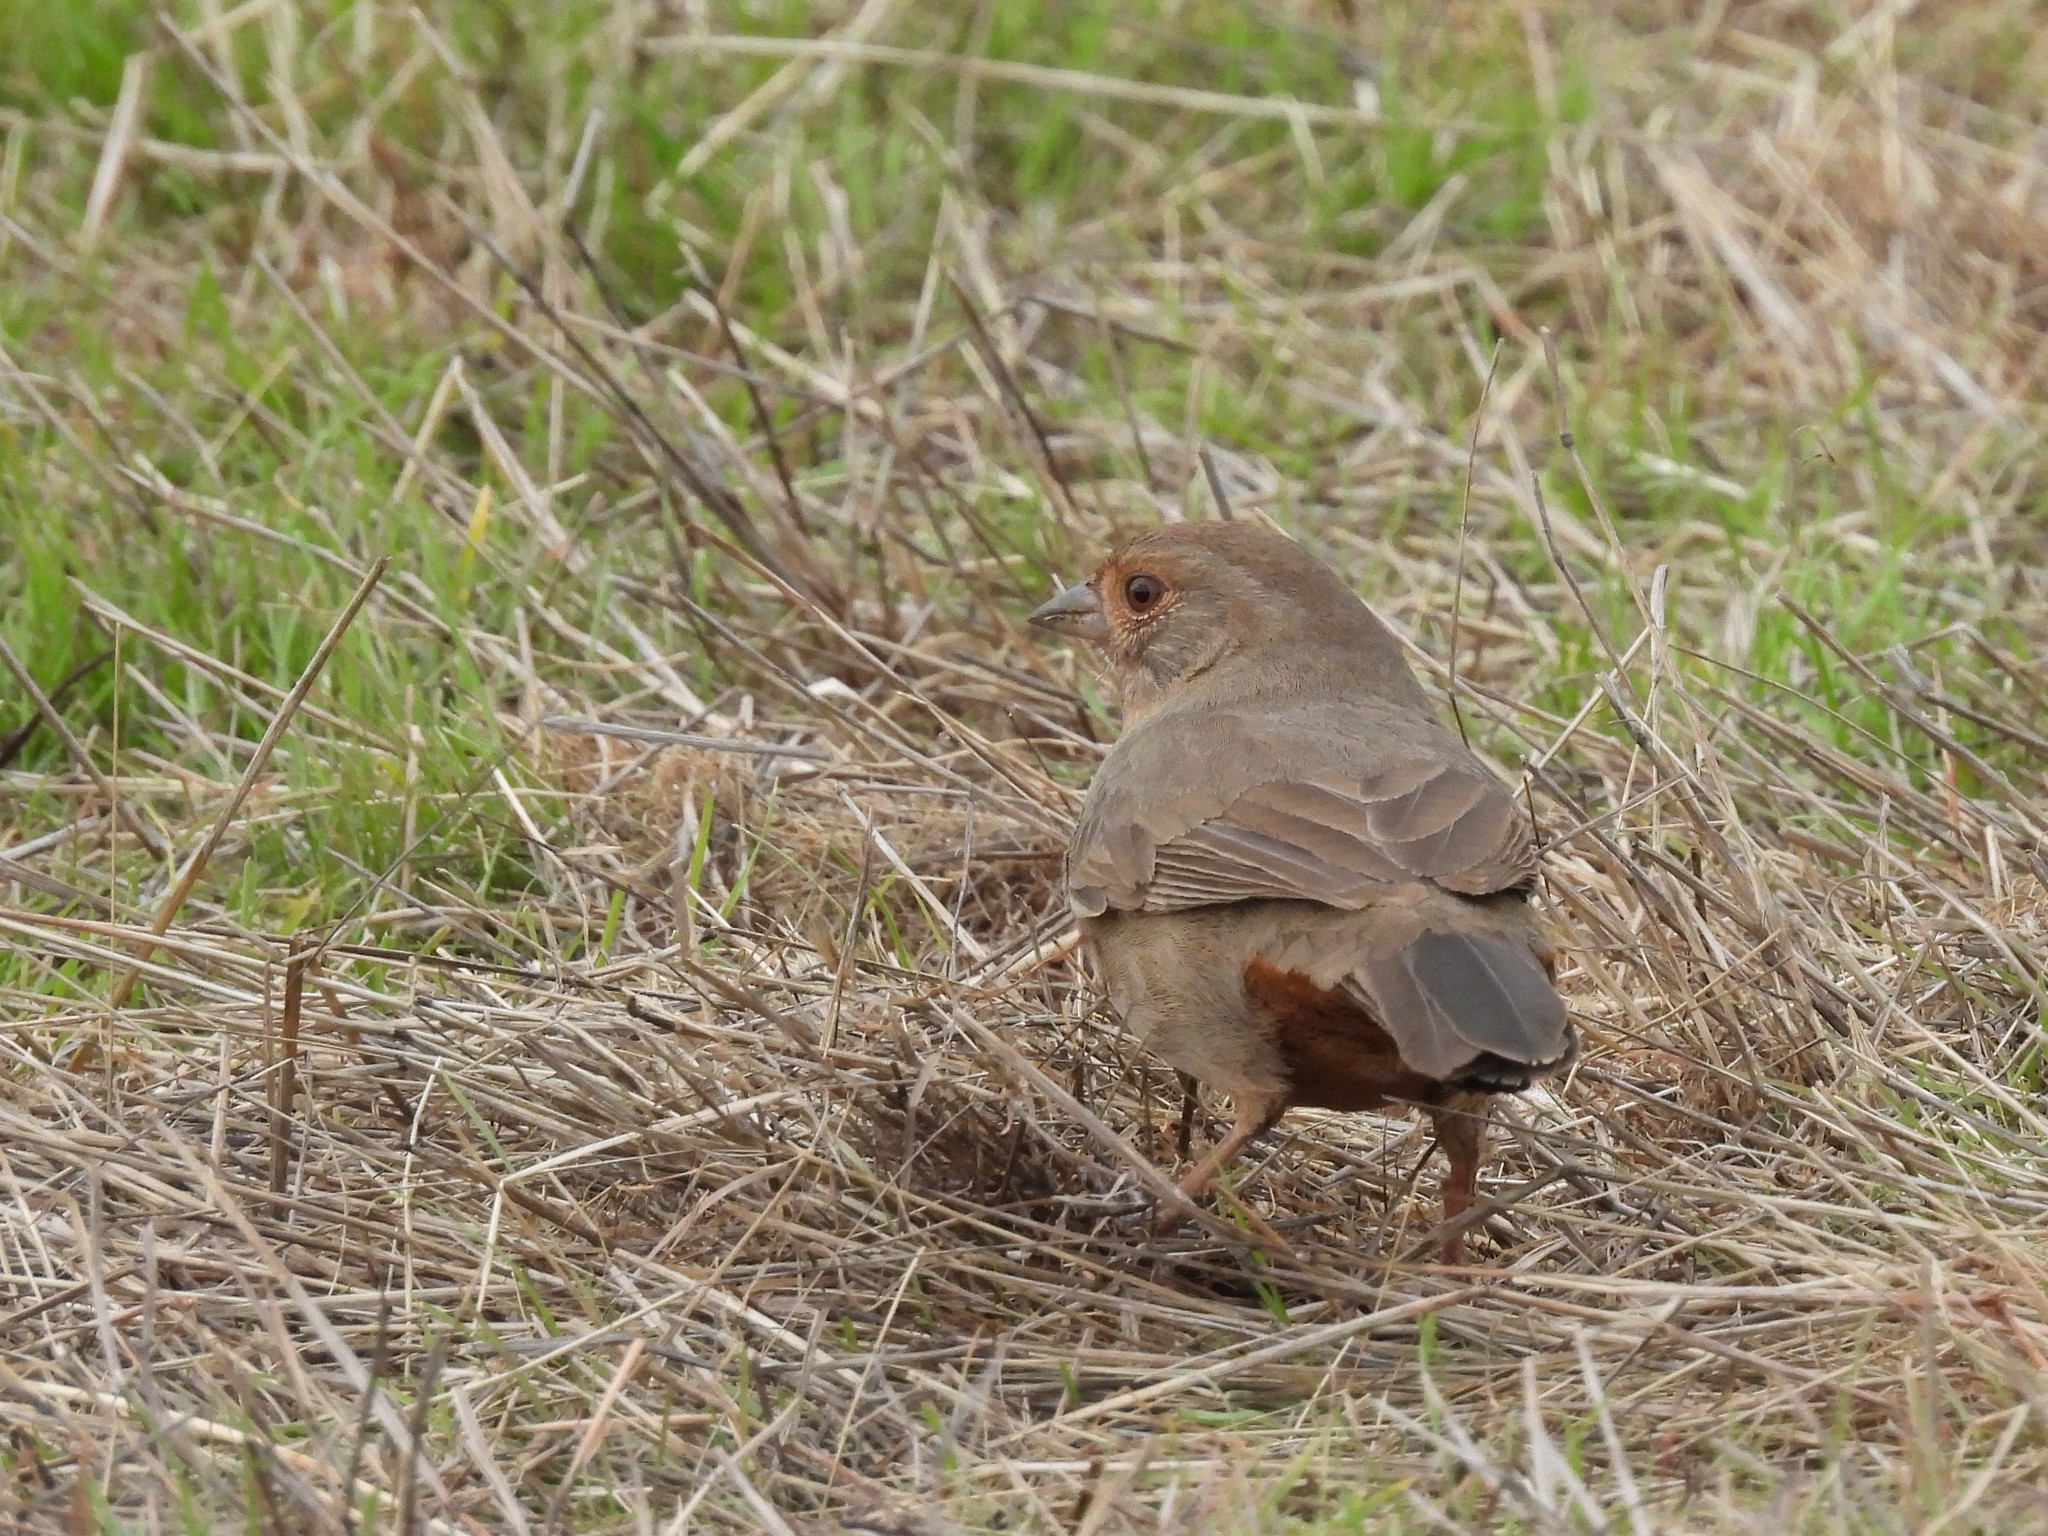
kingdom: Animalia
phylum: Chordata
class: Aves
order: Passeriformes
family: Passerellidae
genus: Melozone
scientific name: Melozone crissalis
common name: California towhee
